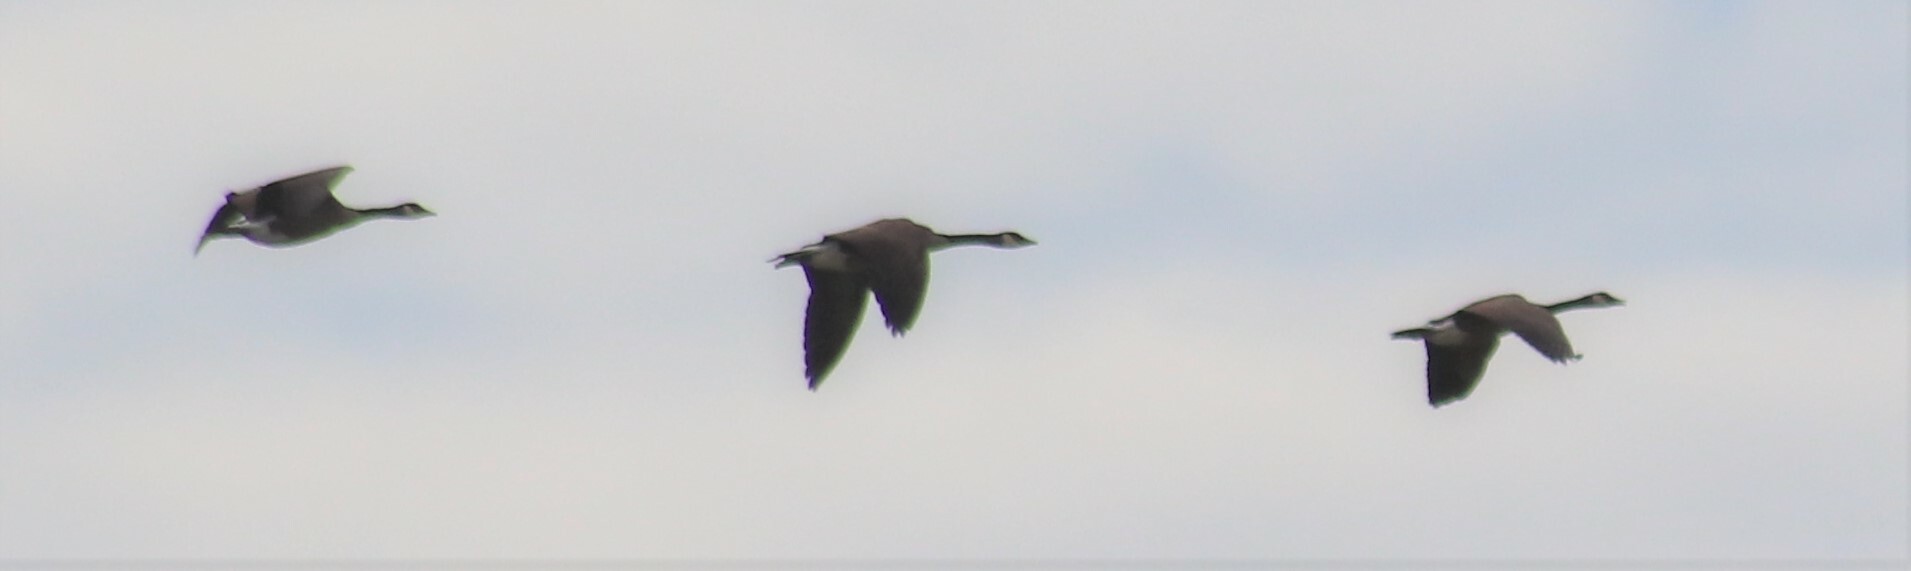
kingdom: Animalia
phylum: Chordata
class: Aves
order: Anseriformes
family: Anatidae
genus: Branta
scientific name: Branta canadensis
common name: Canada goose
